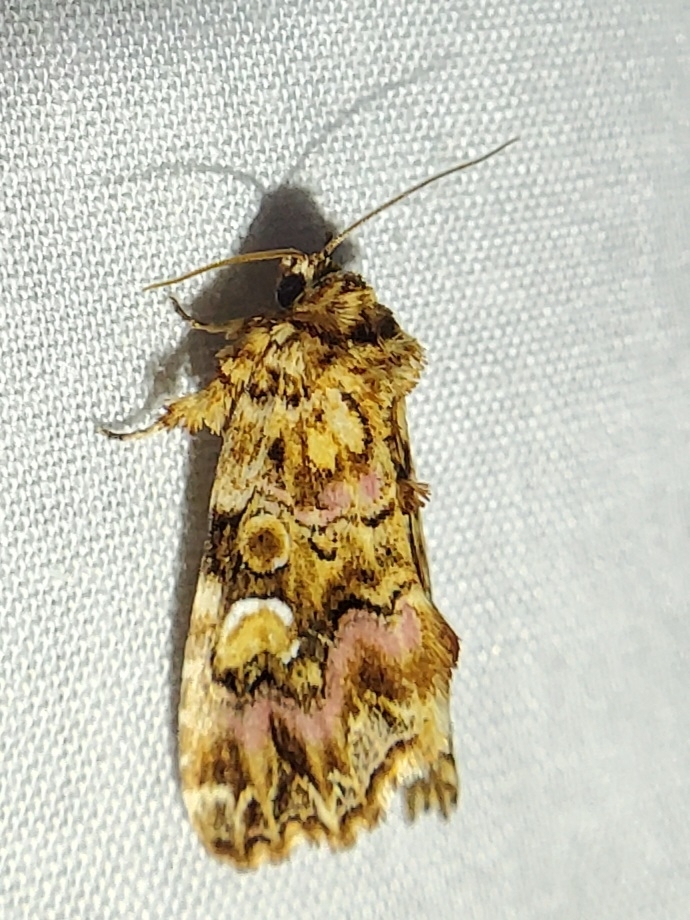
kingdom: Animalia
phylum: Arthropoda
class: Insecta
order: Lepidoptera
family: Noctuidae
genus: Callopistria
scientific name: Callopistria mollissima
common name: Pink-shaded fern moth
